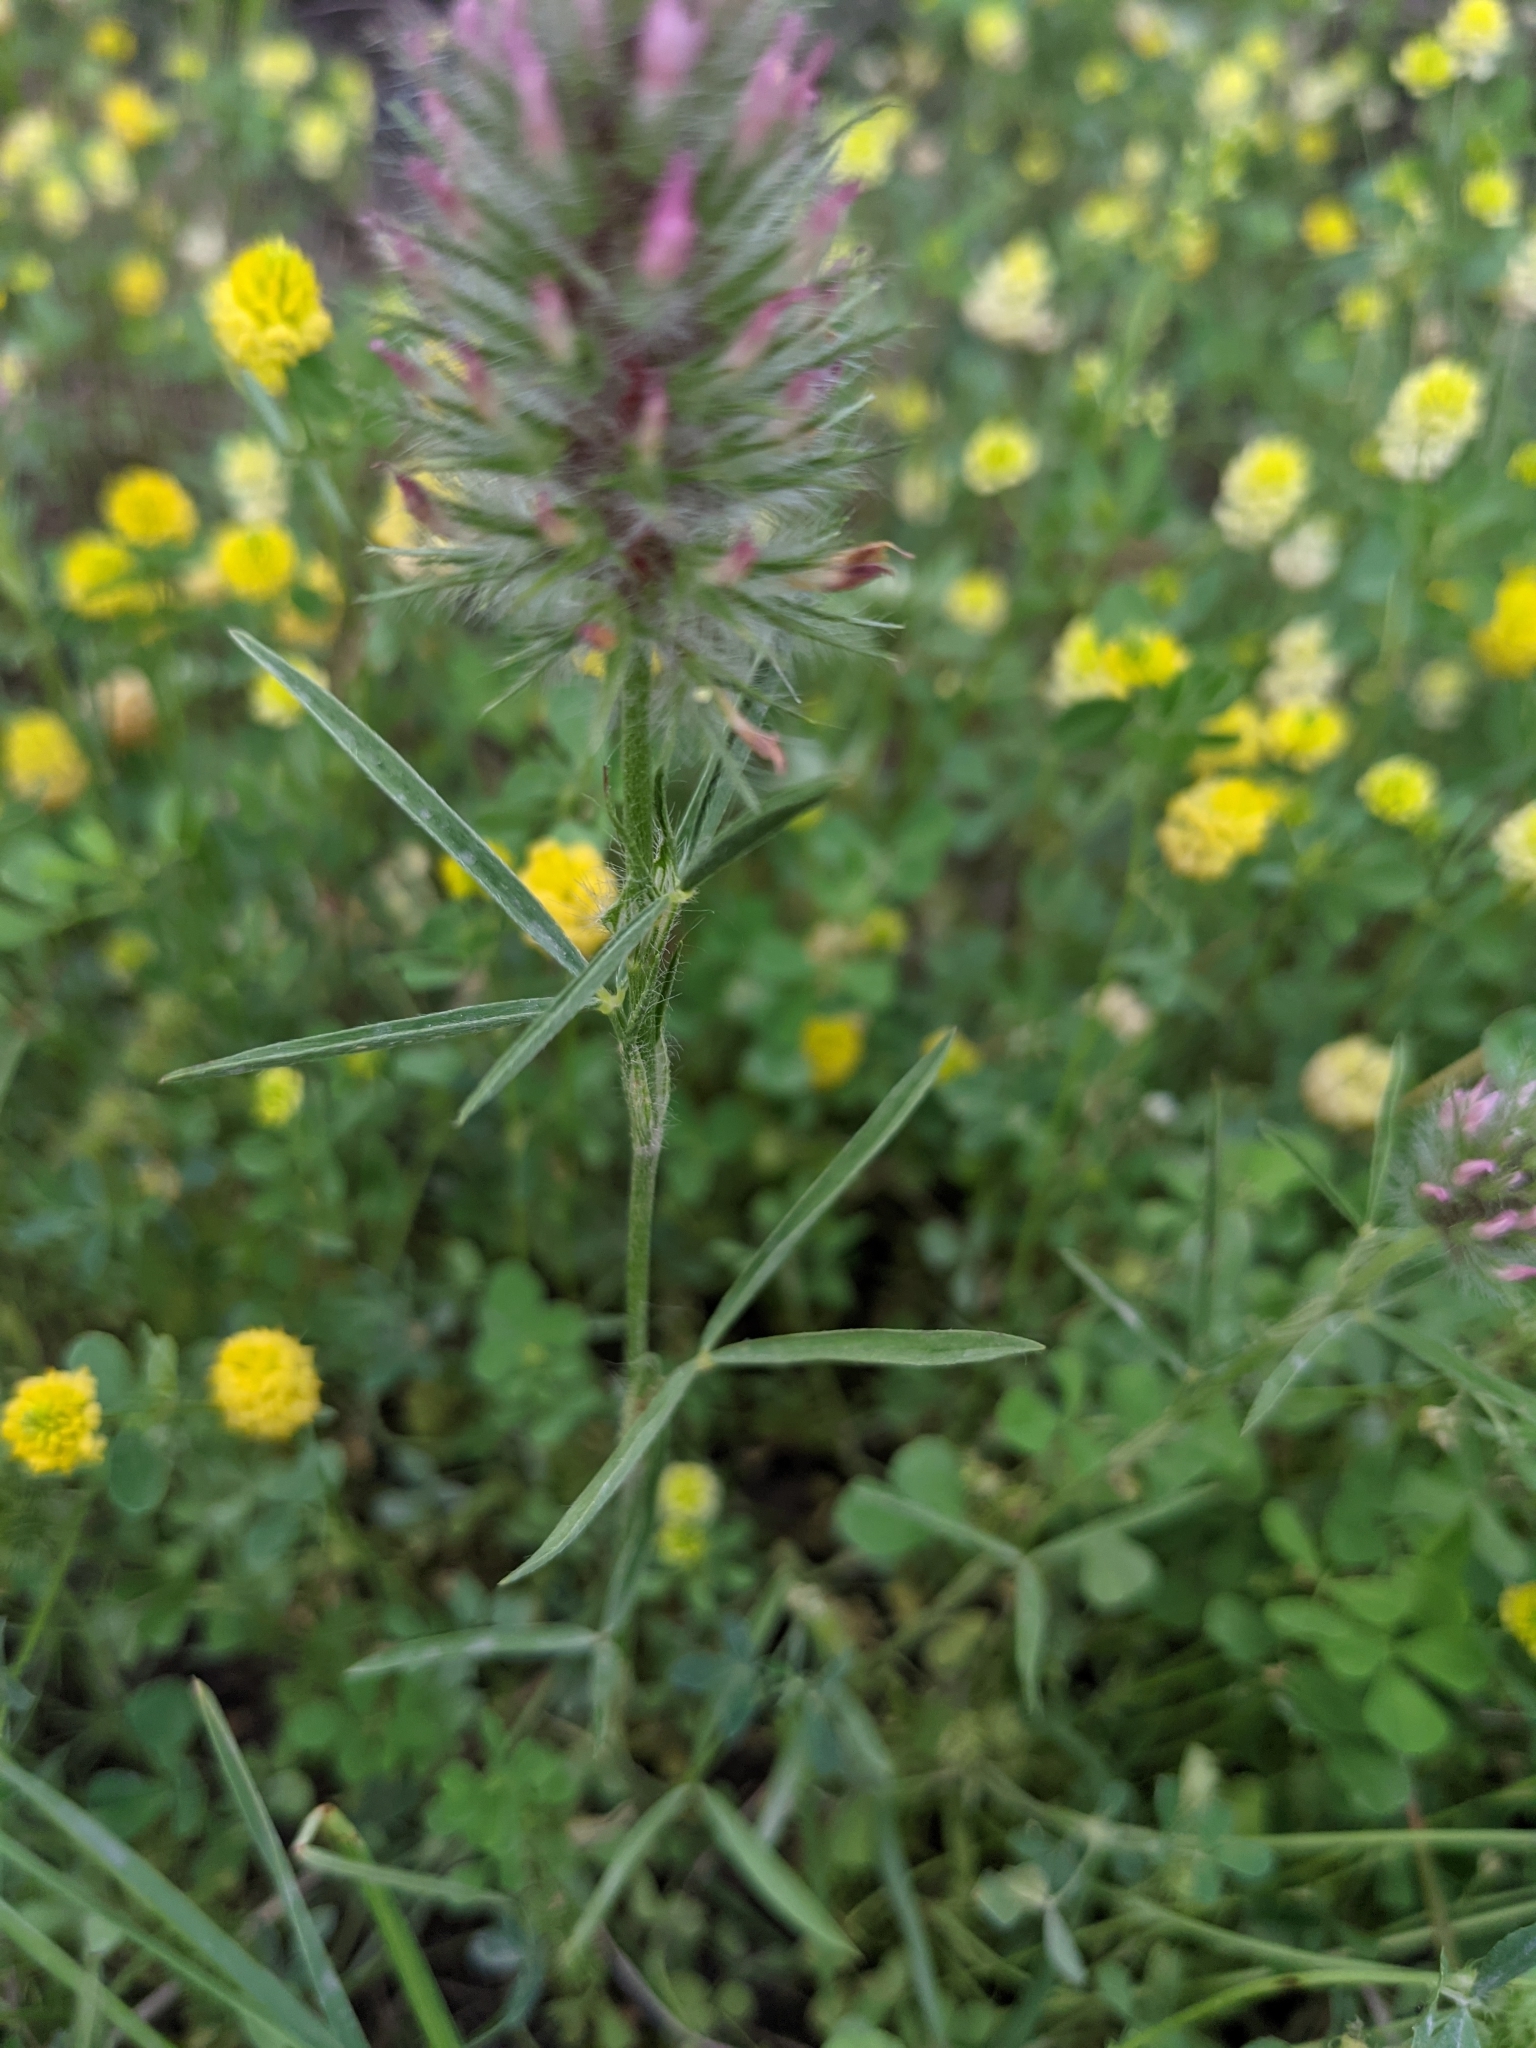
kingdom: Plantae
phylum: Tracheophyta
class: Magnoliopsida
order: Fabales
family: Fabaceae
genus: Trifolium
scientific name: Trifolium angustifolium
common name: Narrow clover
